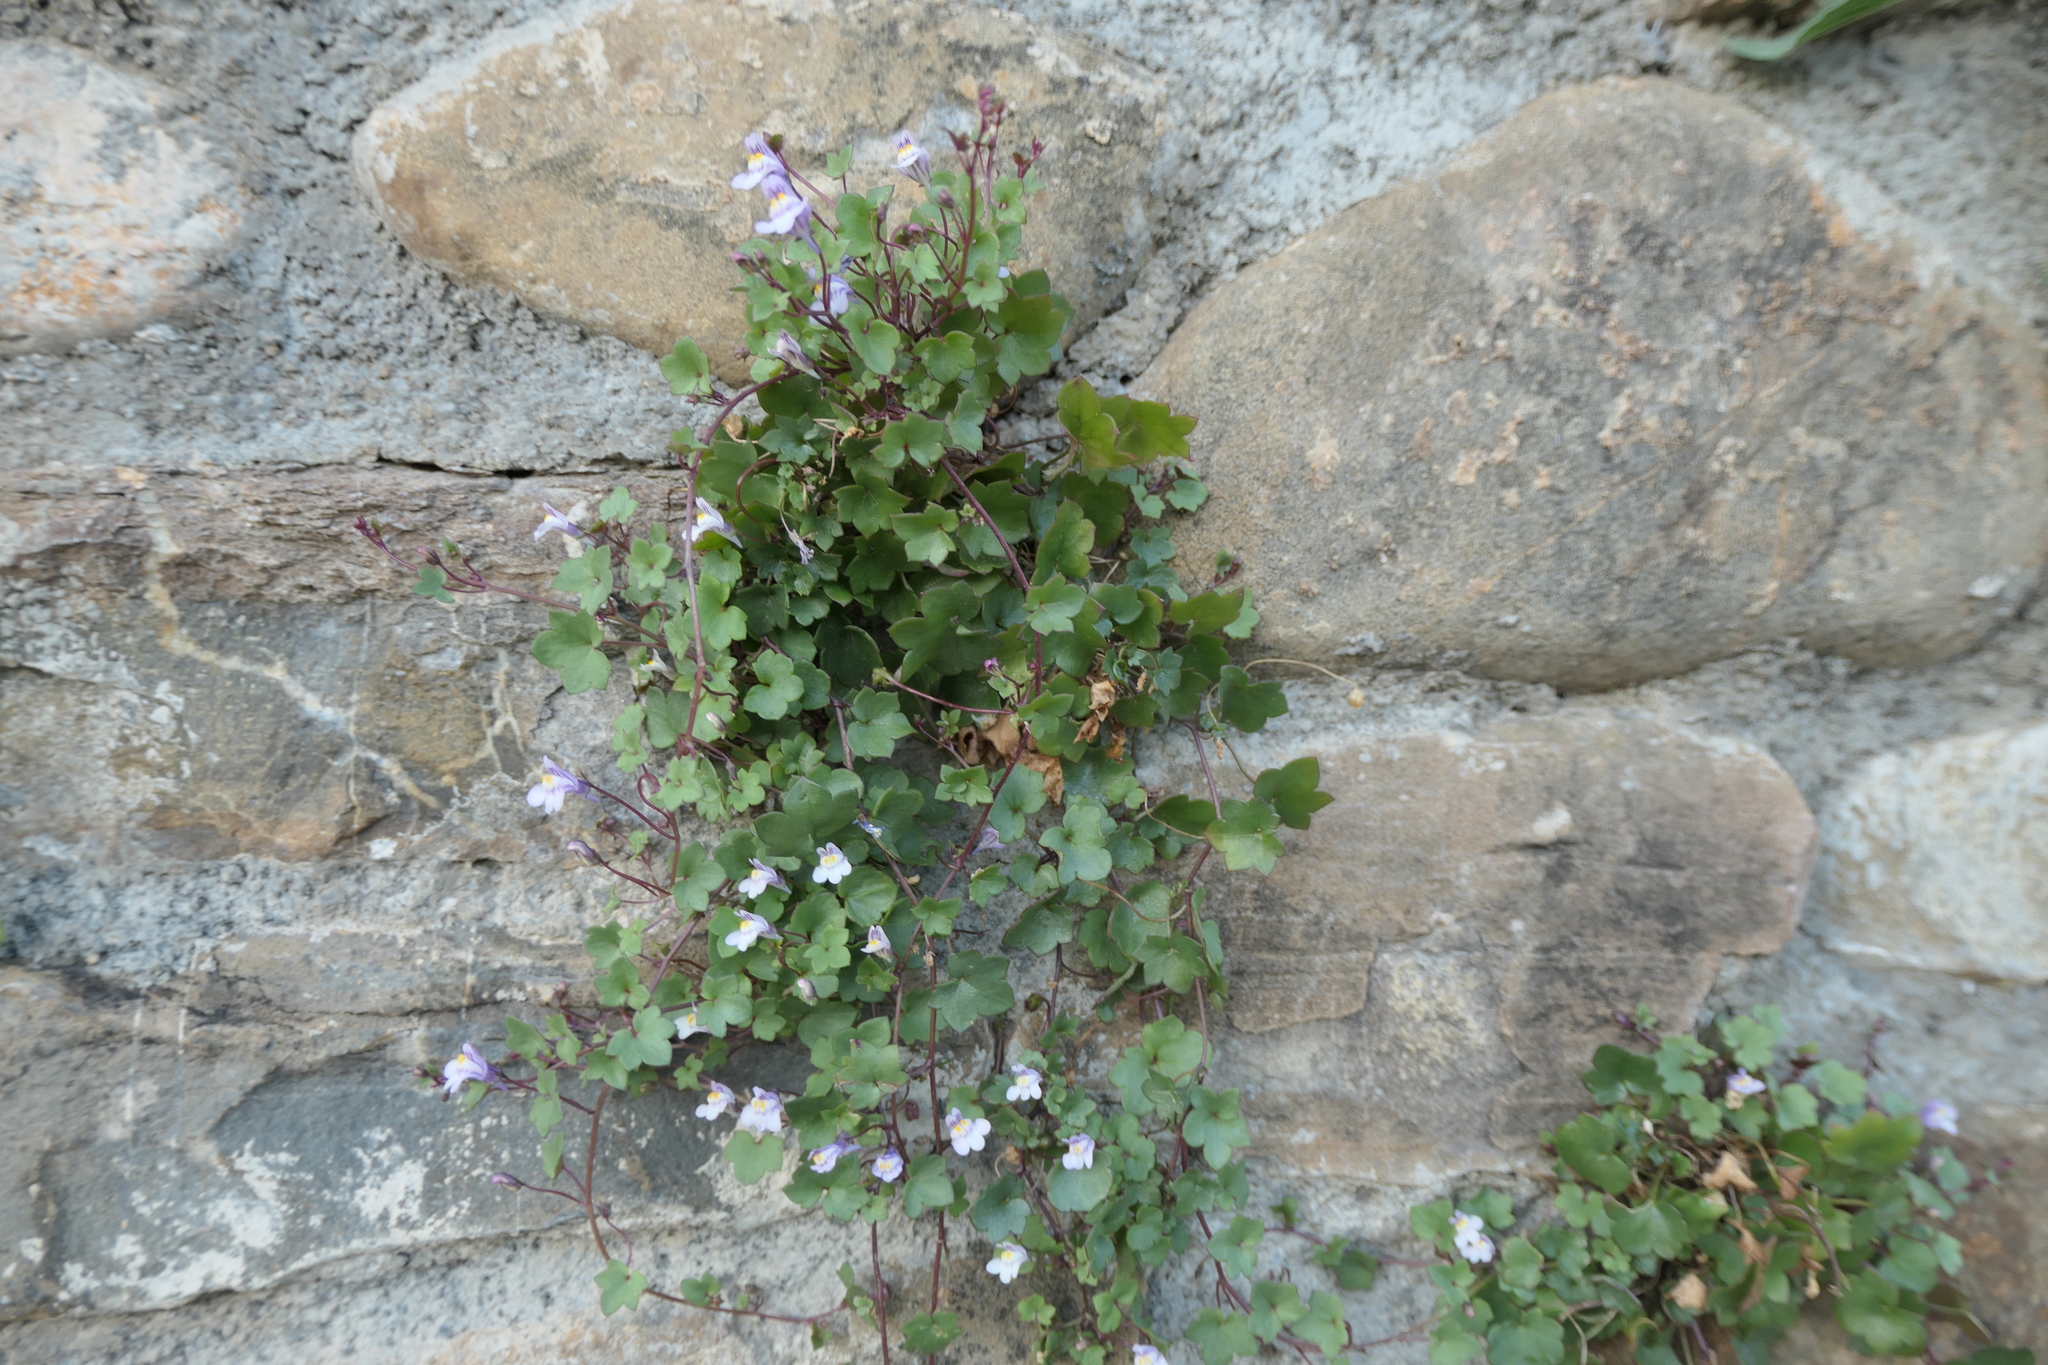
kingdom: Plantae
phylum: Tracheophyta
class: Magnoliopsida
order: Lamiales
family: Plantaginaceae
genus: Cymbalaria
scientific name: Cymbalaria muralis
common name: Ivy-leaved toadflax
